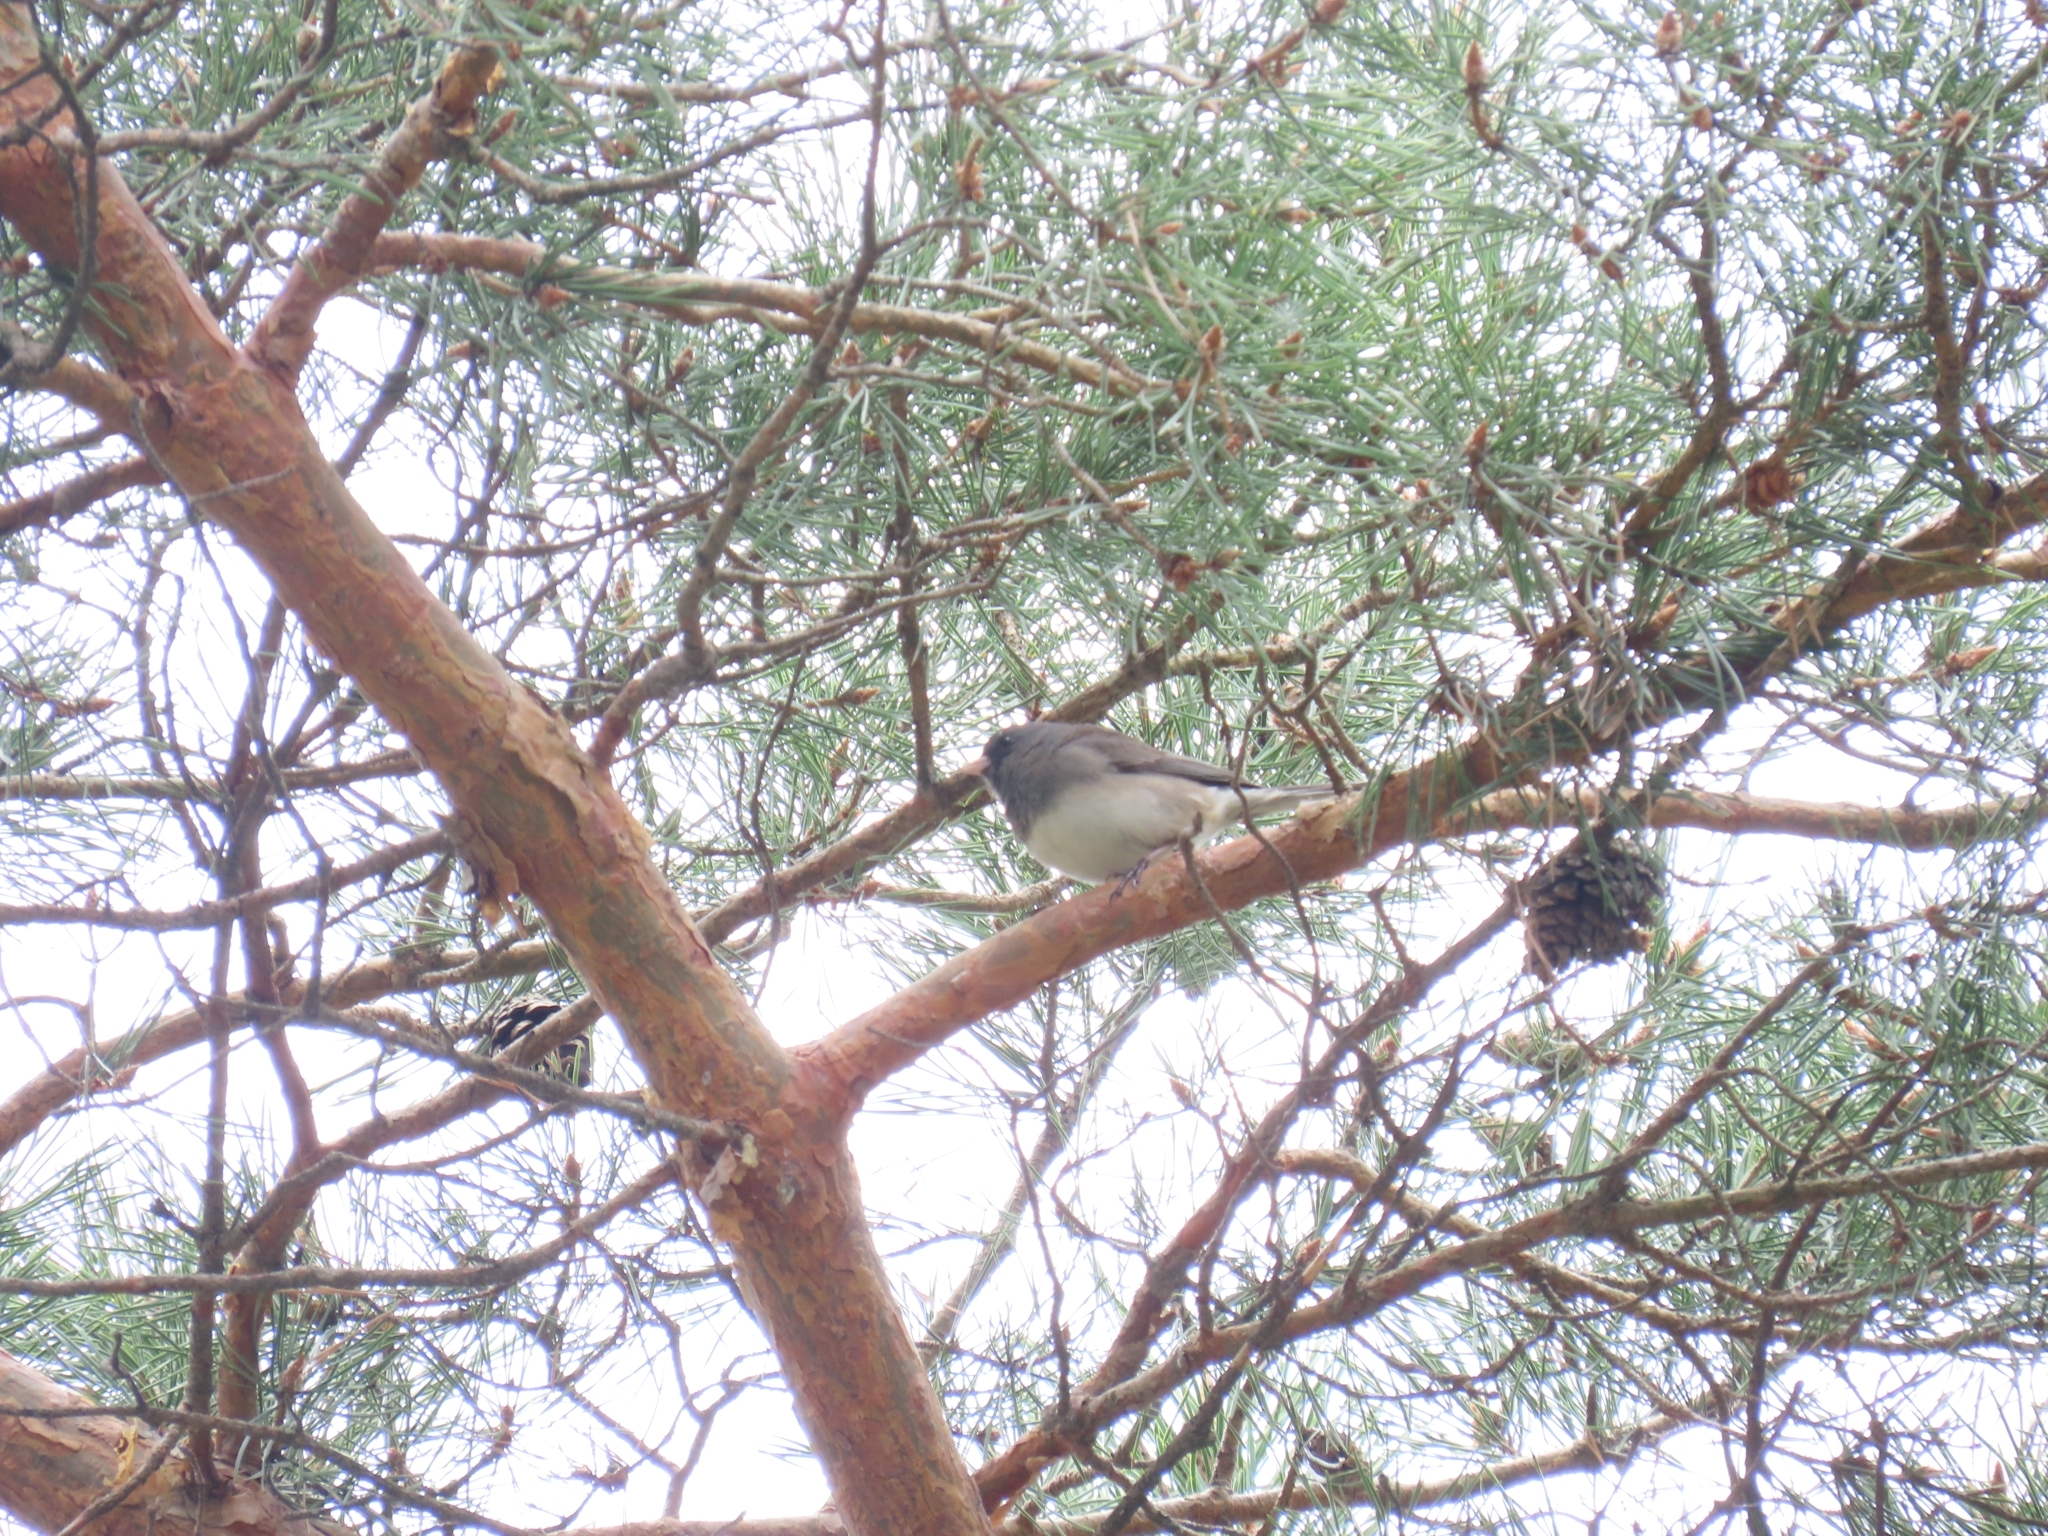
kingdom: Animalia
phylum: Chordata
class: Aves
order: Passeriformes
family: Passerellidae
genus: Junco
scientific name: Junco hyemalis
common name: Dark-eyed junco
